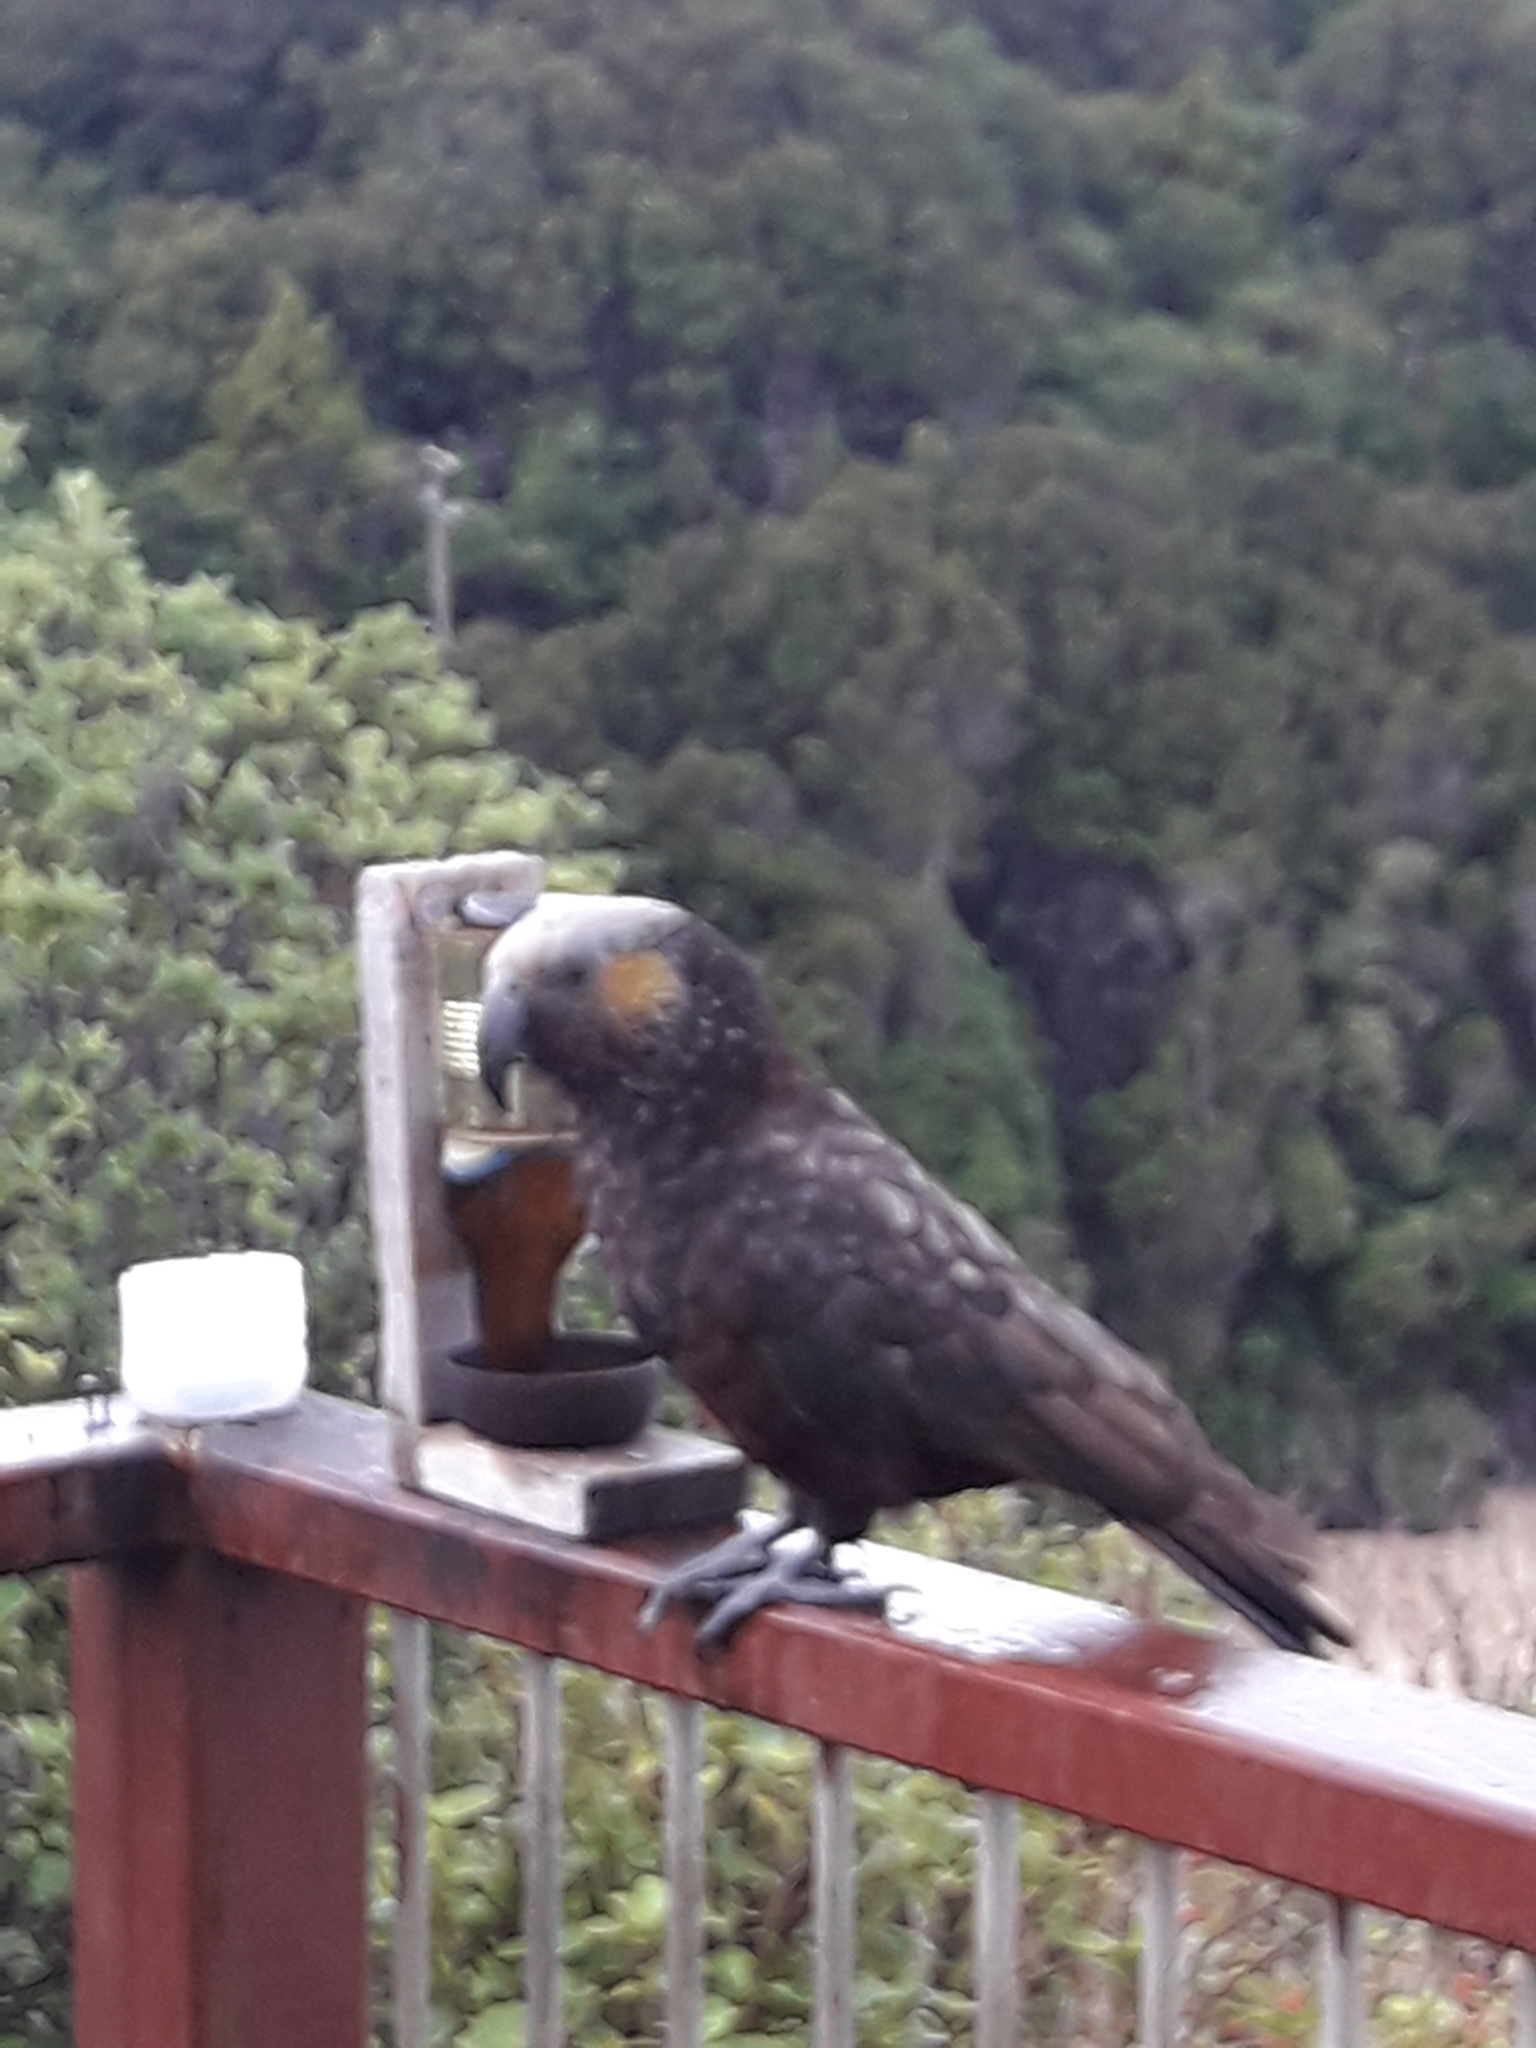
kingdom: Animalia
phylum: Chordata
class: Aves
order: Psittaciformes
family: Psittacidae
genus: Nestor
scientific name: Nestor meridionalis
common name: New zealand kaka
